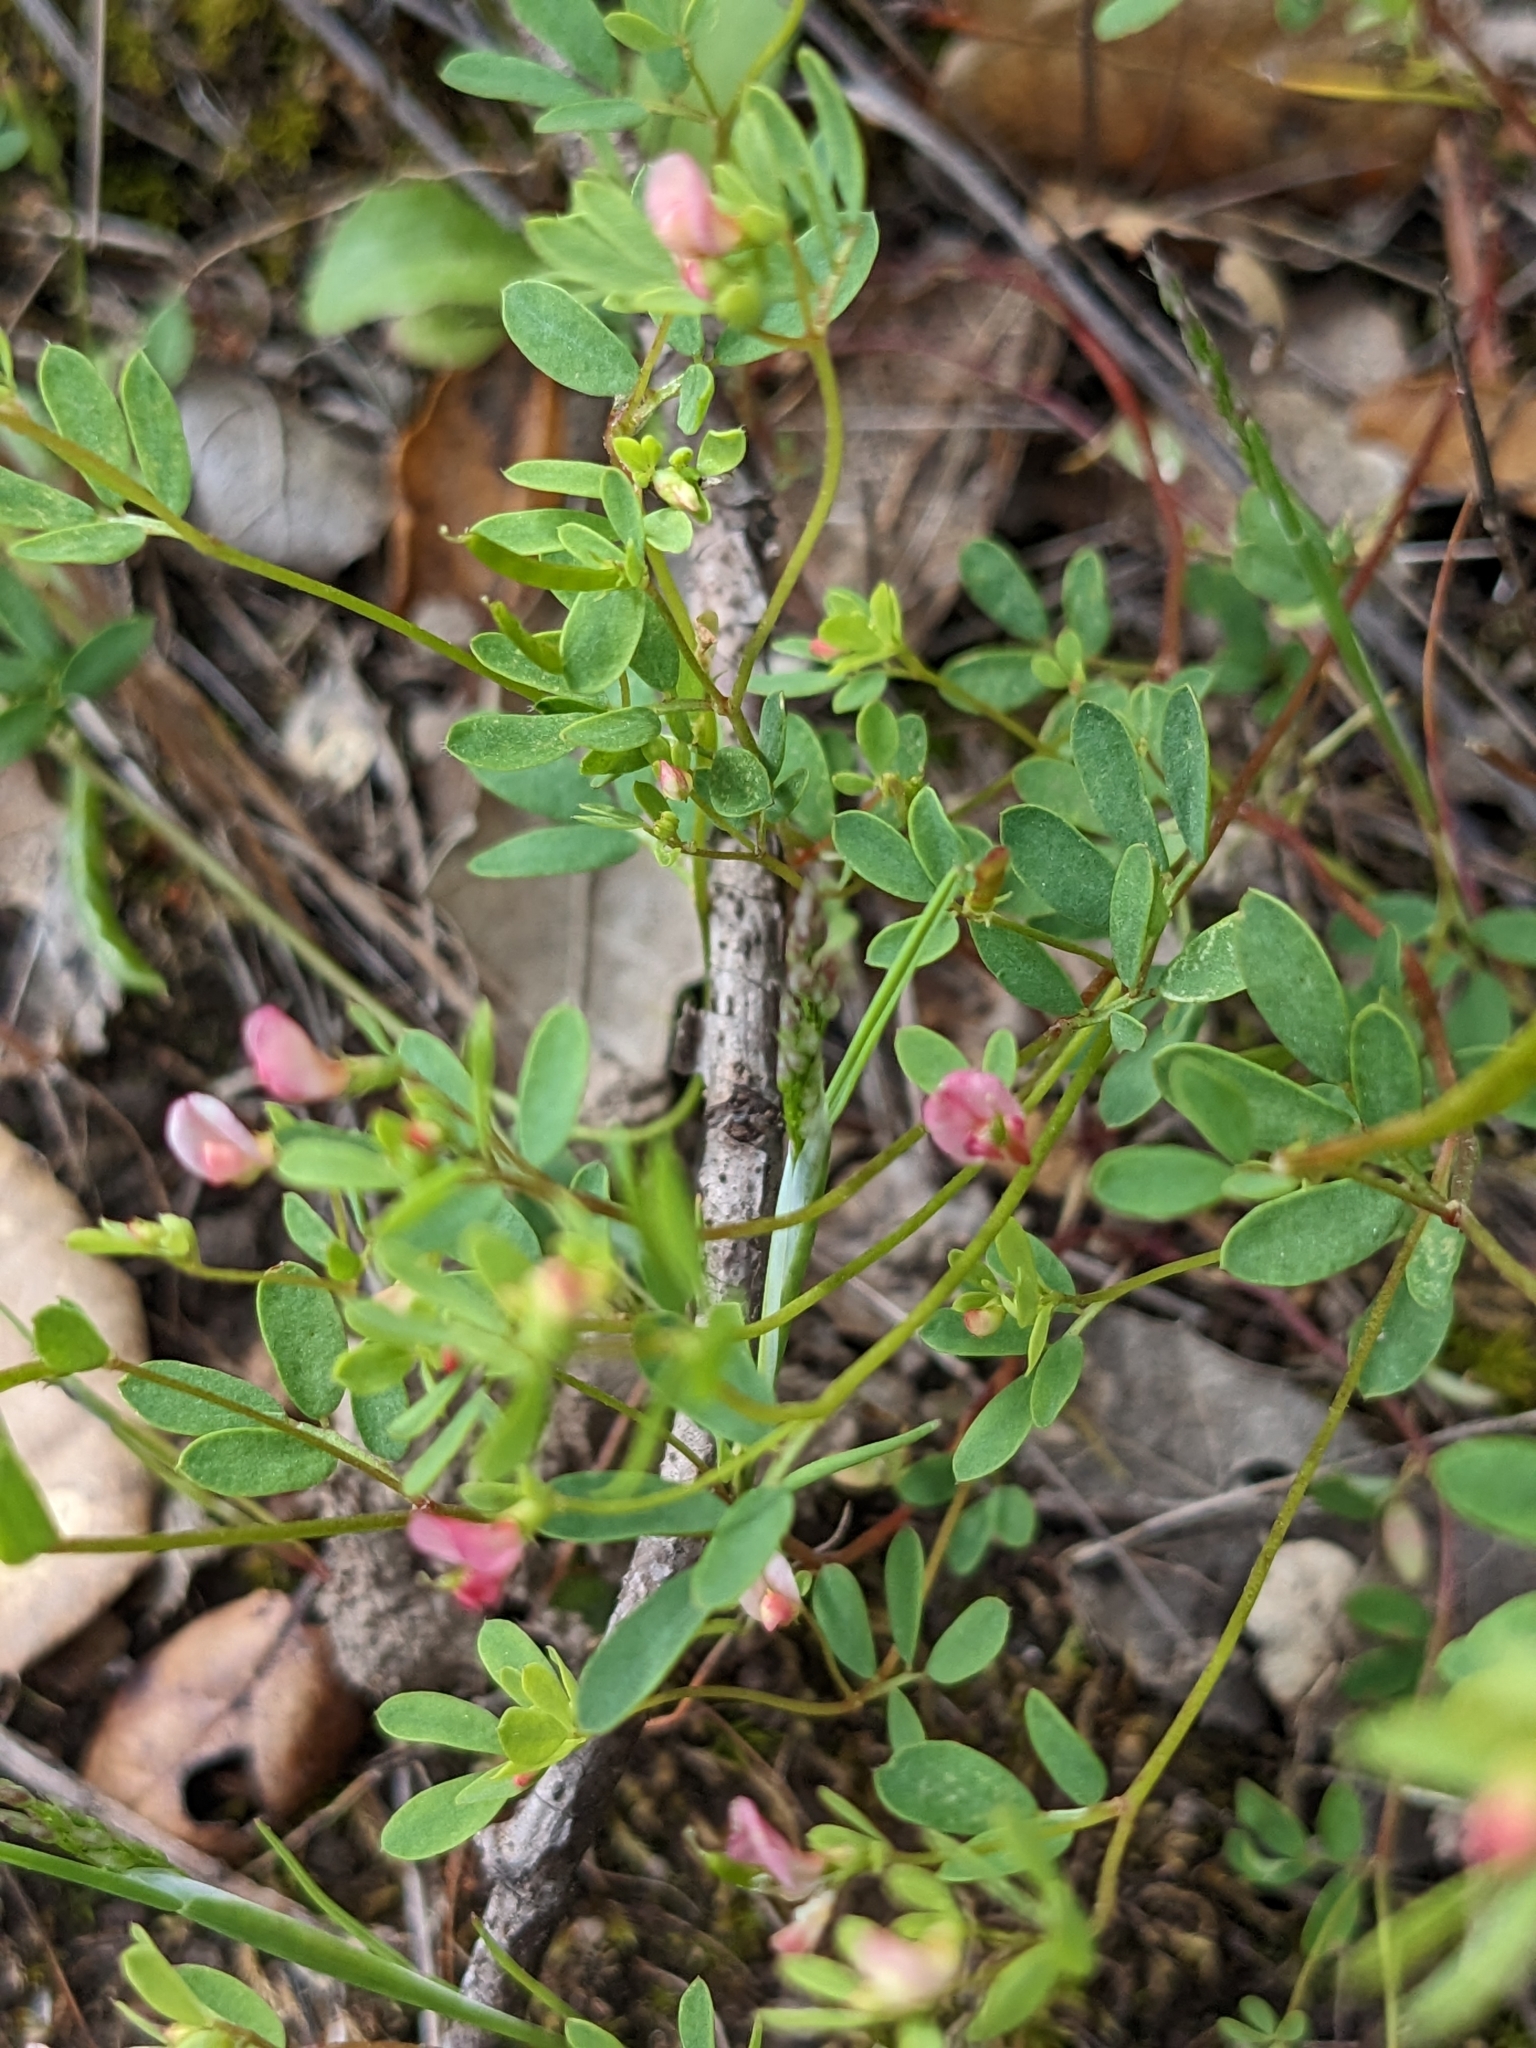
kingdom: Plantae
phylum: Tracheophyta
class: Magnoliopsida
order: Fabales
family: Fabaceae
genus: Acmispon
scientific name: Acmispon parviflorus
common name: Desert deer-vetch
